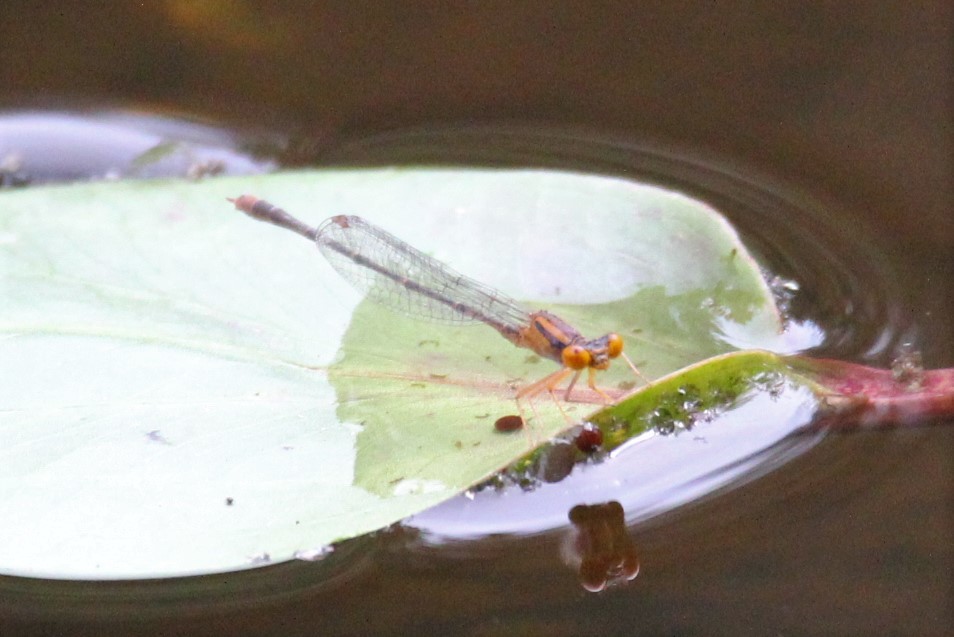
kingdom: Animalia
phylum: Arthropoda
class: Insecta
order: Odonata
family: Coenagrionidae
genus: Enallagma
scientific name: Enallagma signatum
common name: Orange bluet
